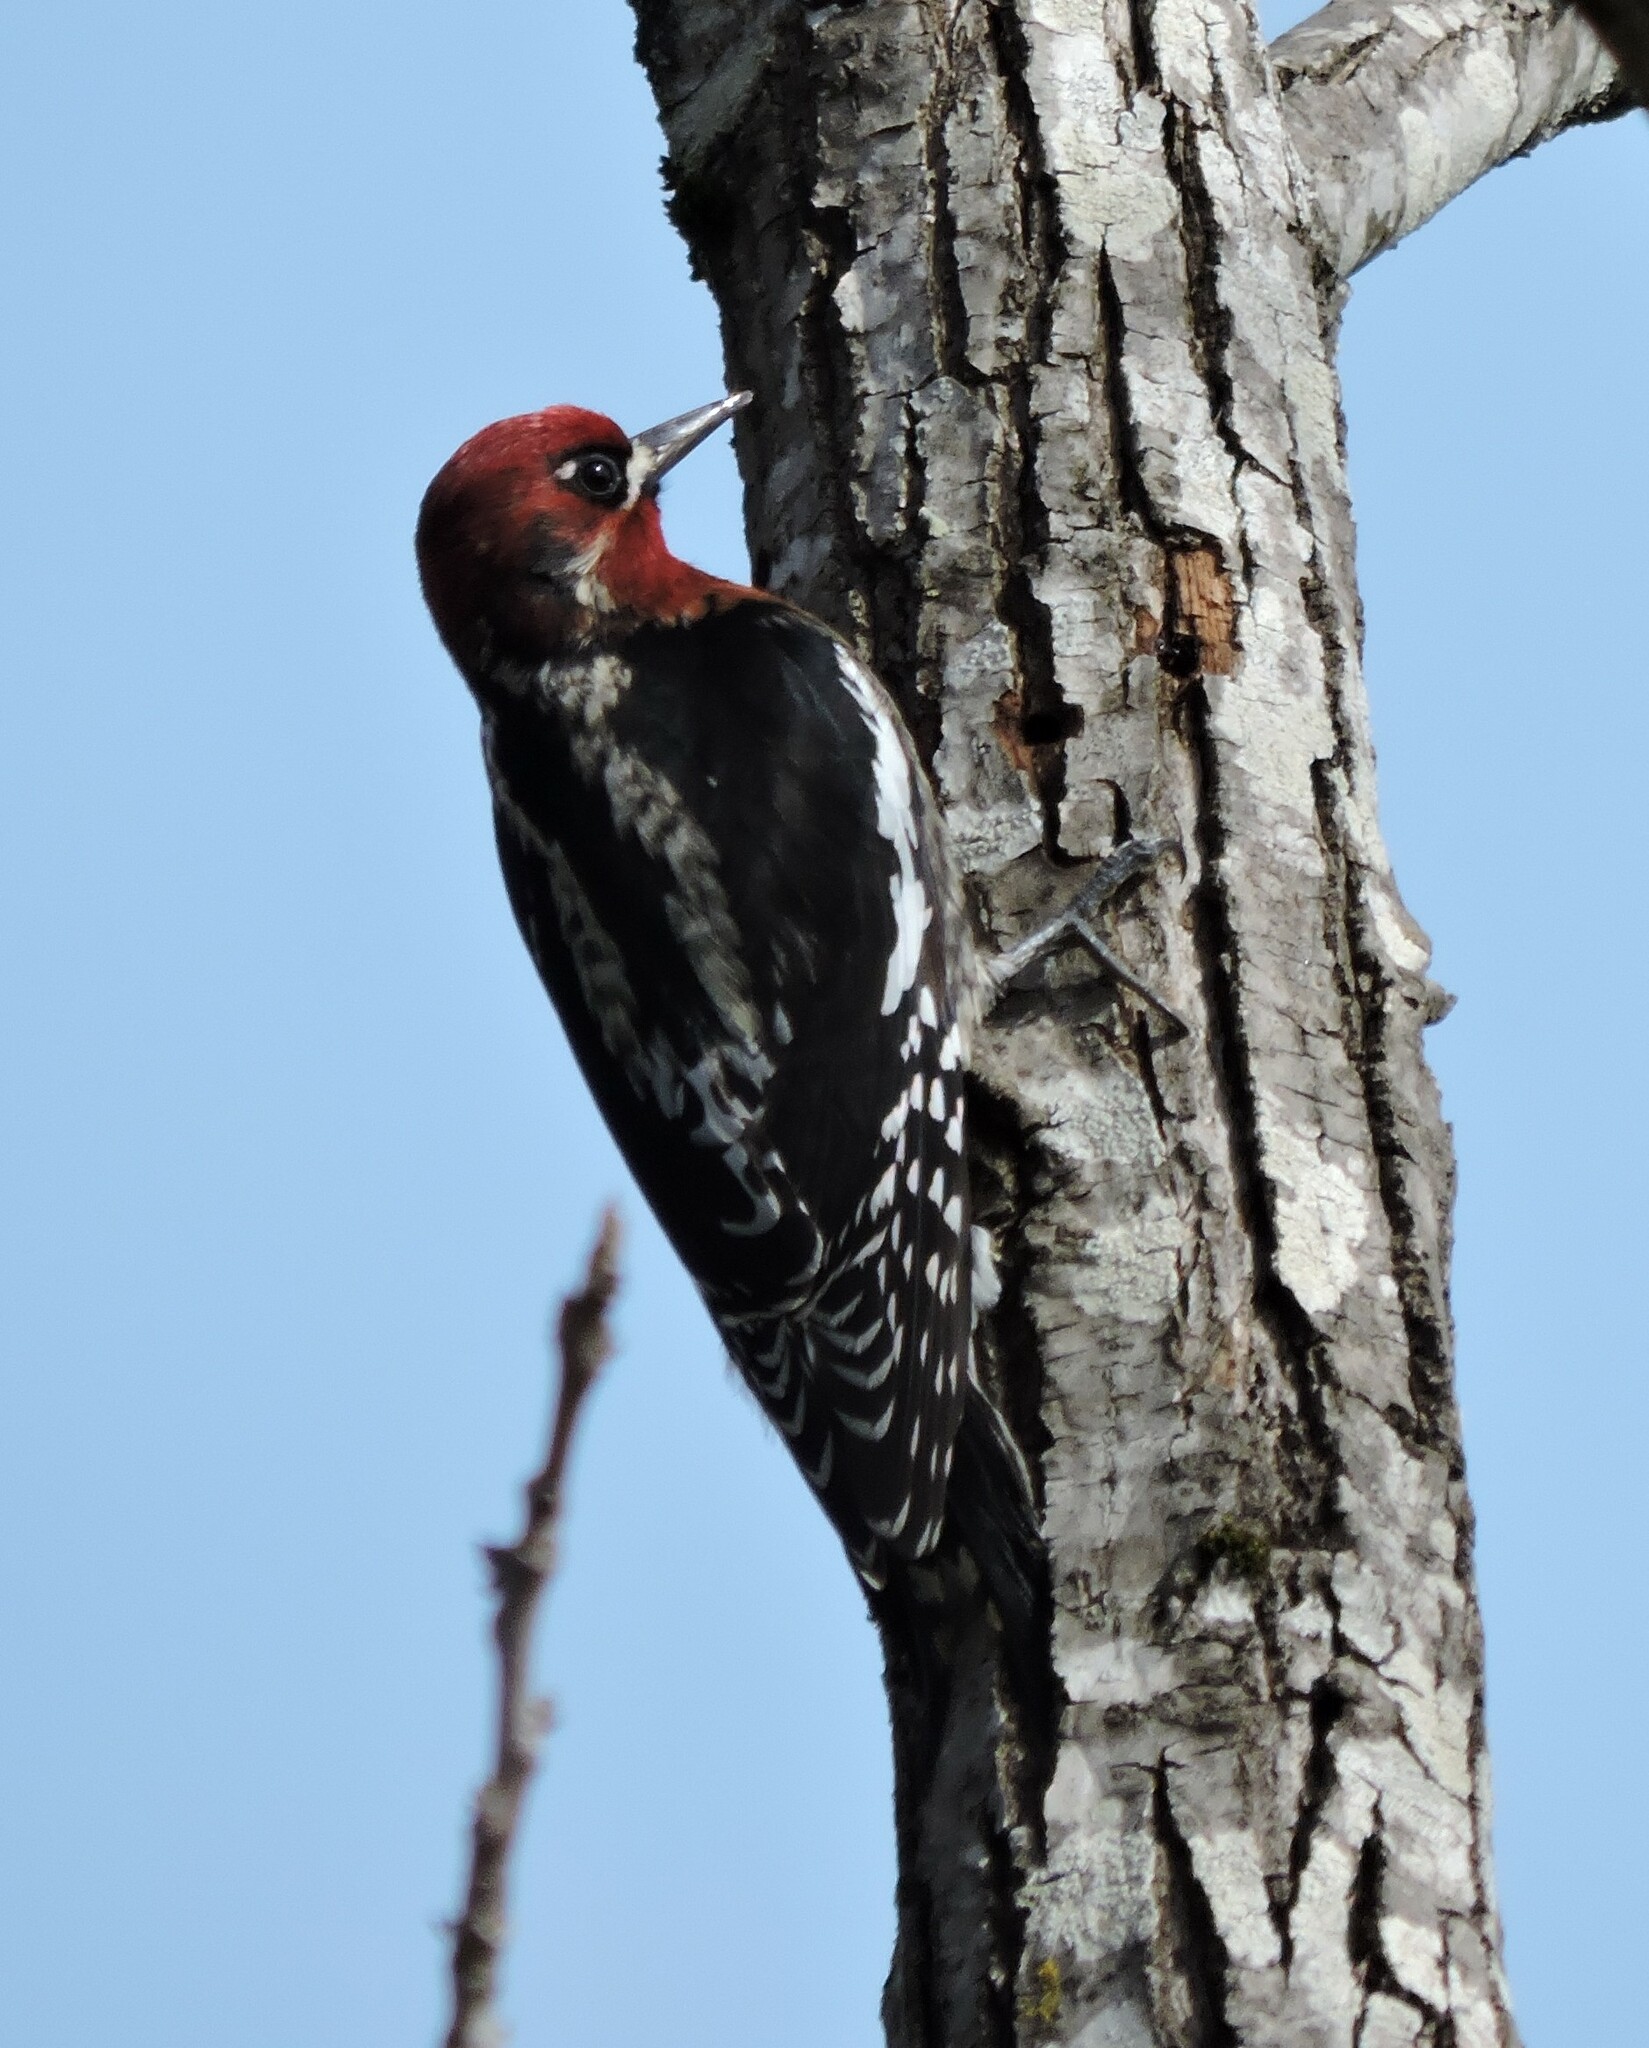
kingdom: Animalia
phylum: Chordata
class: Aves
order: Piciformes
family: Picidae
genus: Sphyrapicus
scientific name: Sphyrapicus ruber
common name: Red-breasted sapsucker
